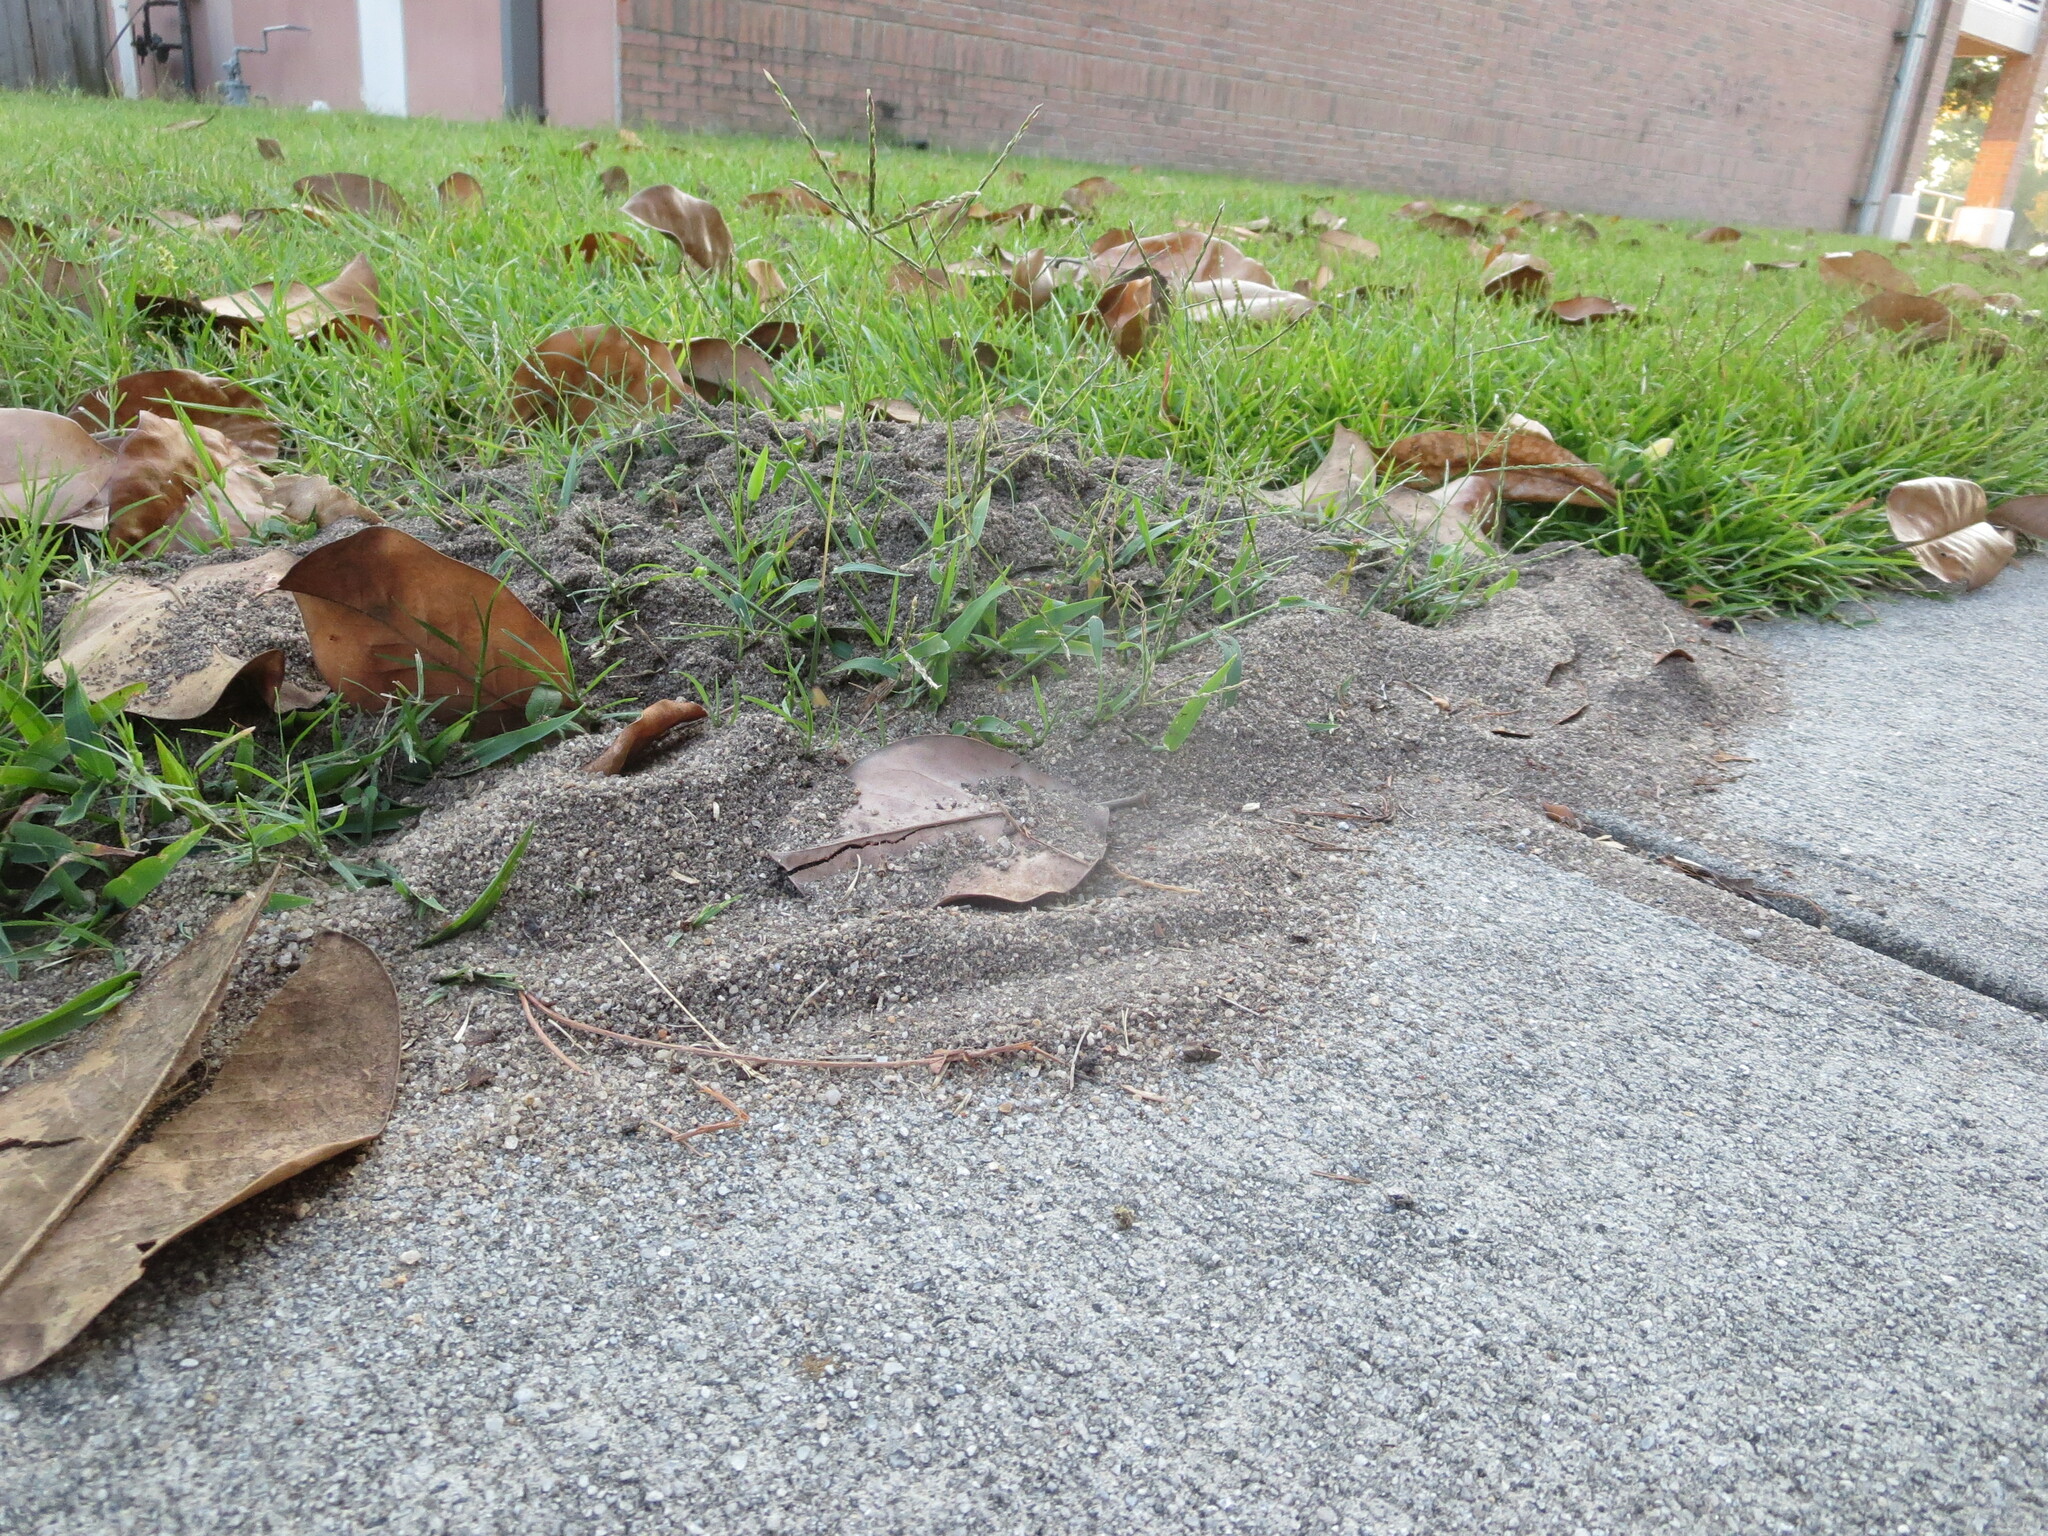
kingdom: Animalia
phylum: Arthropoda
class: Insecta
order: Hymenoptera
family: Formicidae
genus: Solenopsis
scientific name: Solenopsis invicta
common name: Red imported fire ant
